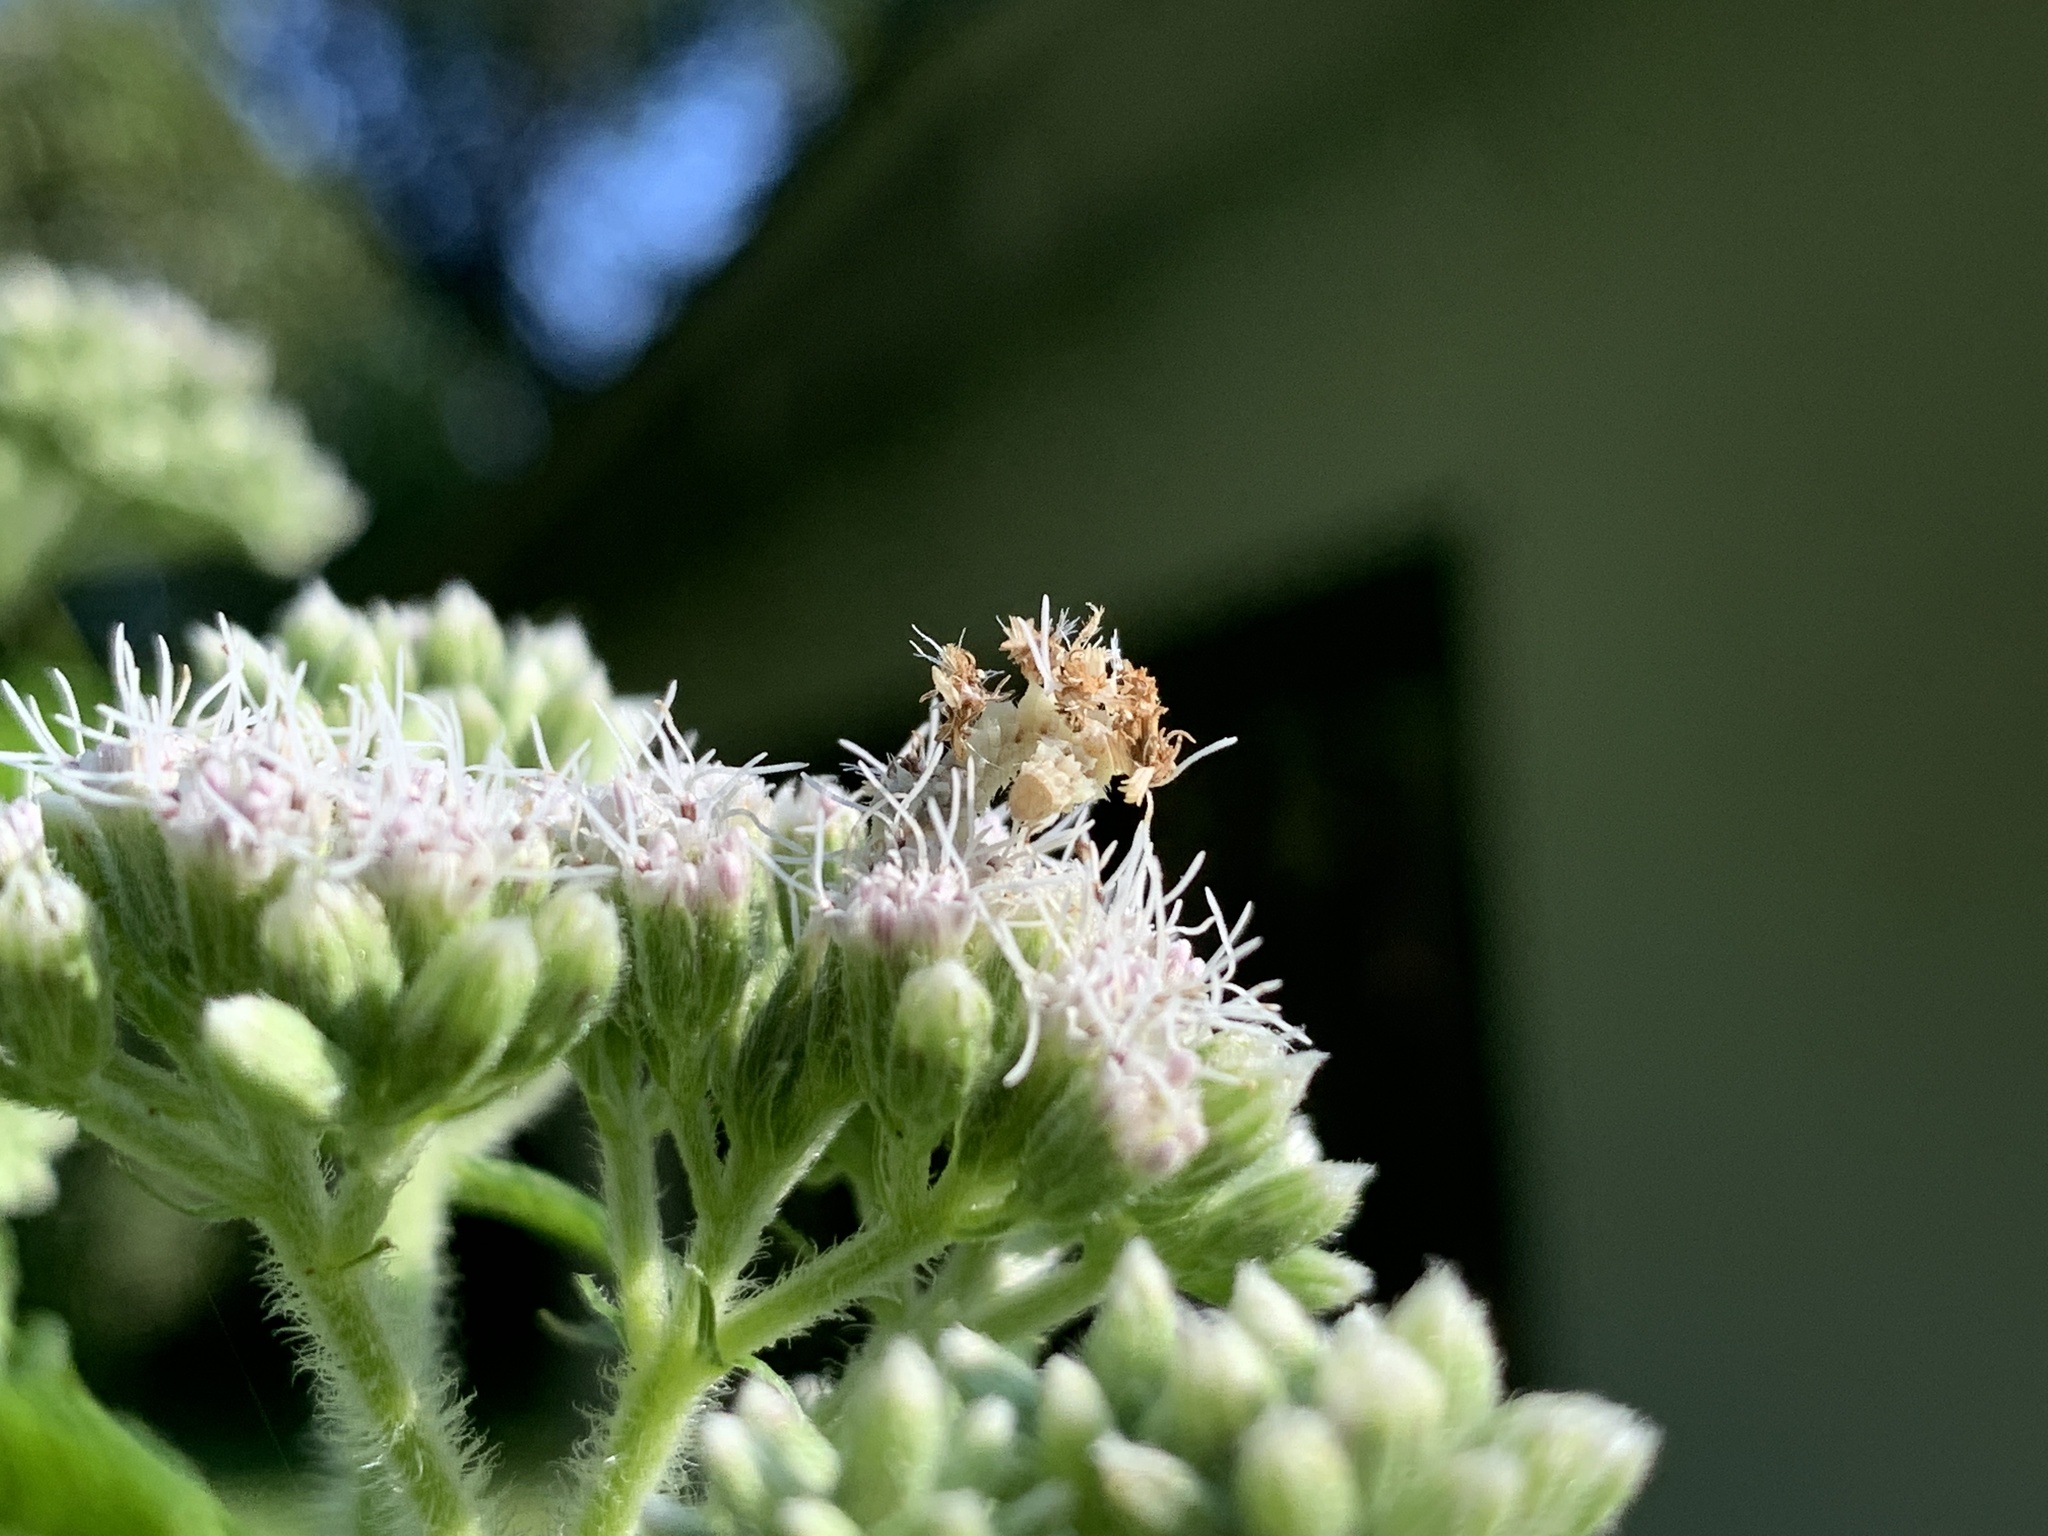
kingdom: Animalia
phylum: Arthropoda
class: Insecta
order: Lepidoptera
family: Geometridae
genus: Synchlora
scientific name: Synchlora aerata
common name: Wavy-lined emerald
